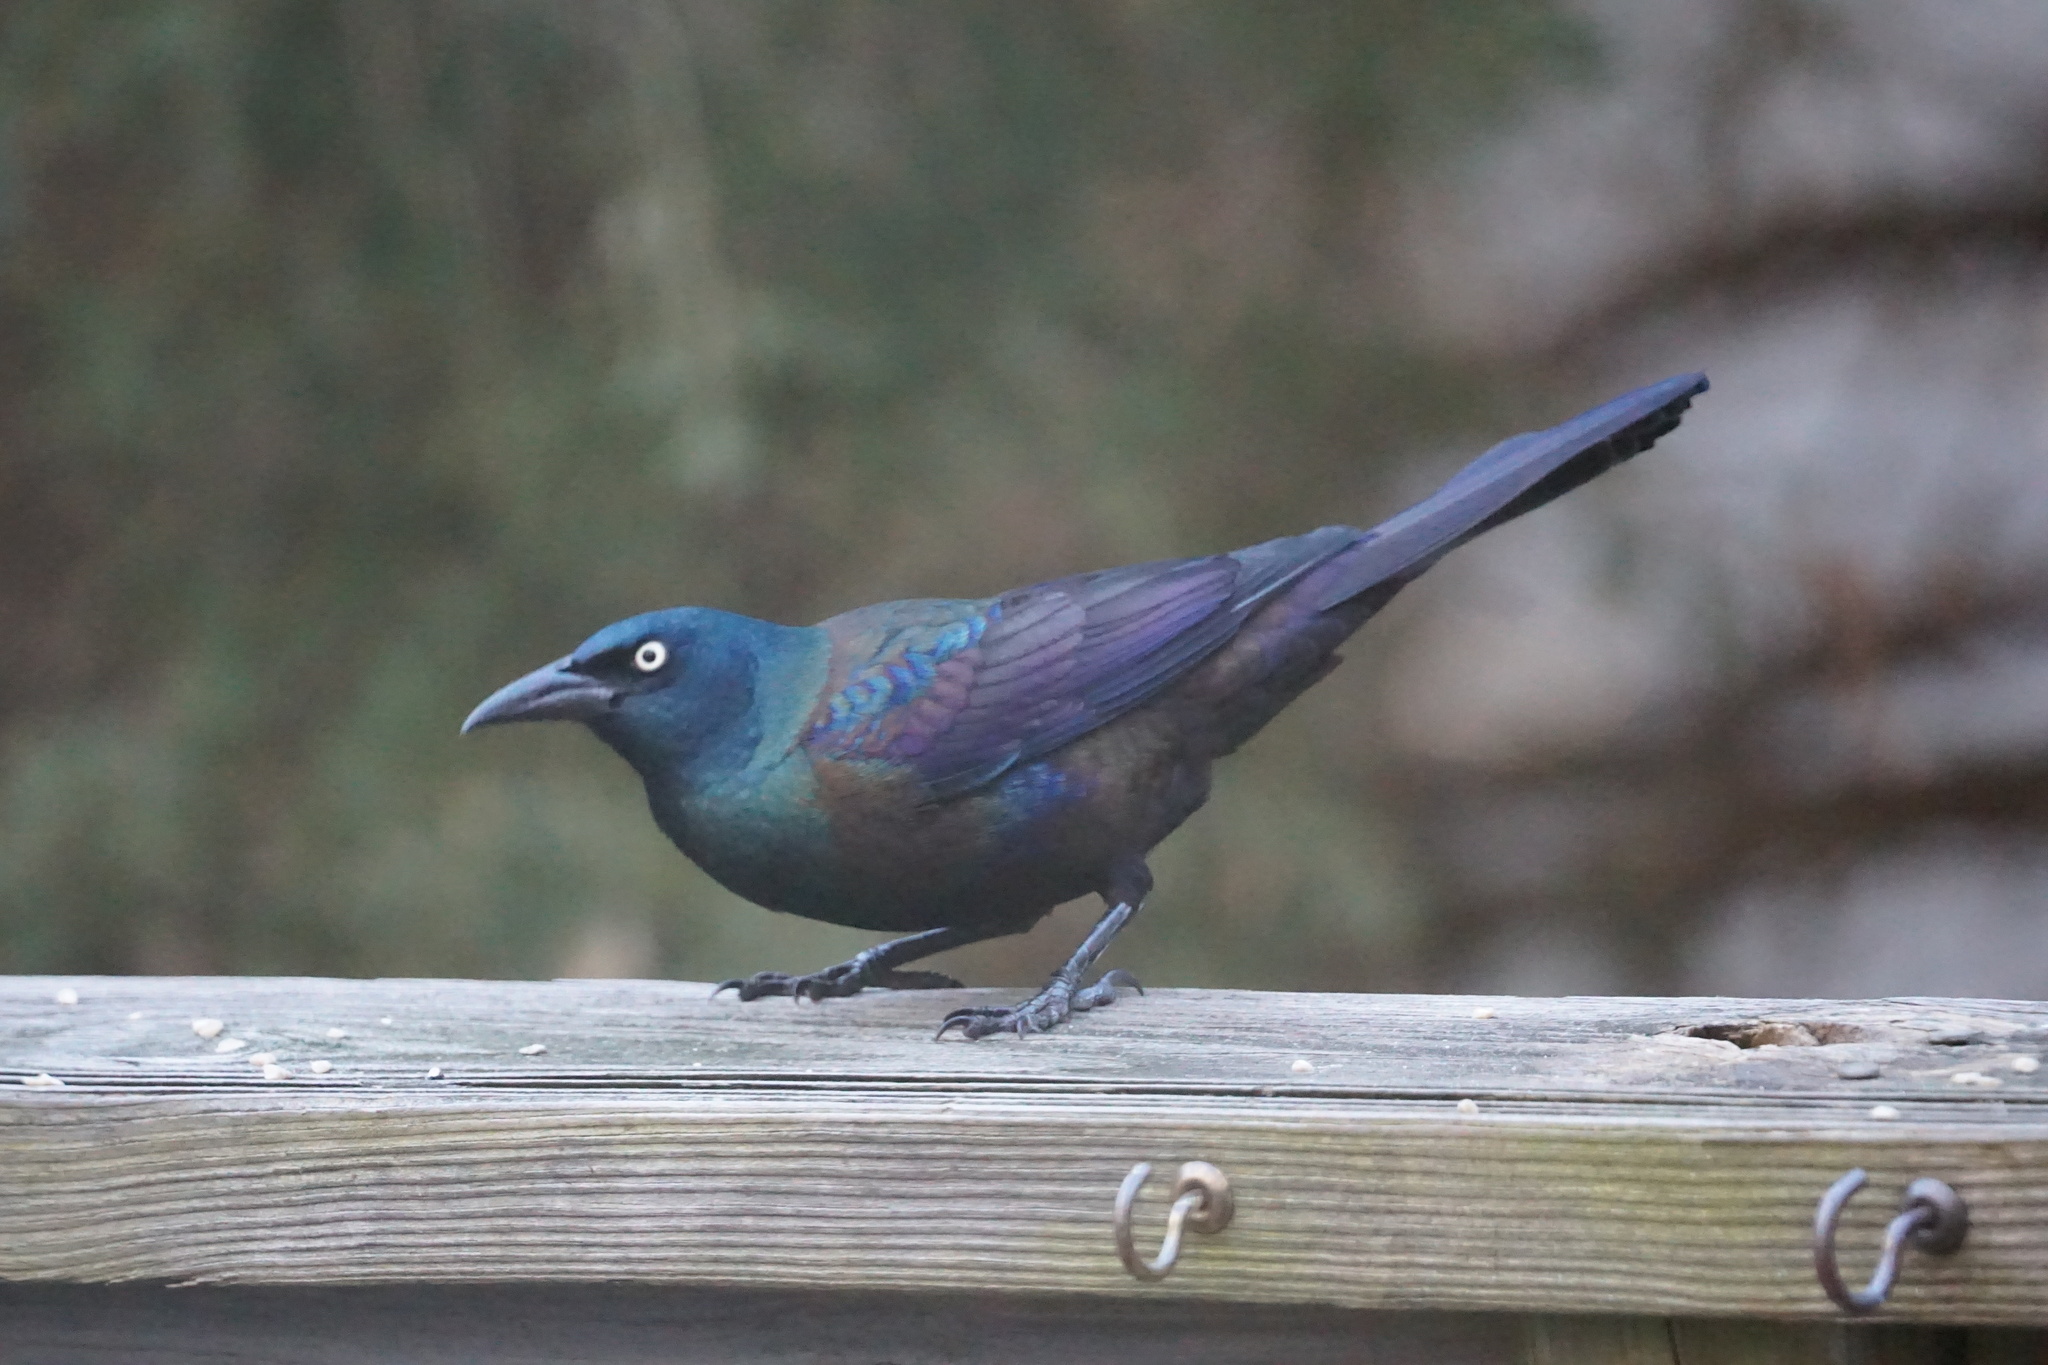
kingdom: Animalia
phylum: Chordata
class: Aves
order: Passeriformes
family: Icteridae
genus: Quiscalus
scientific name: Quiscalus quiscula
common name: Common grackle
